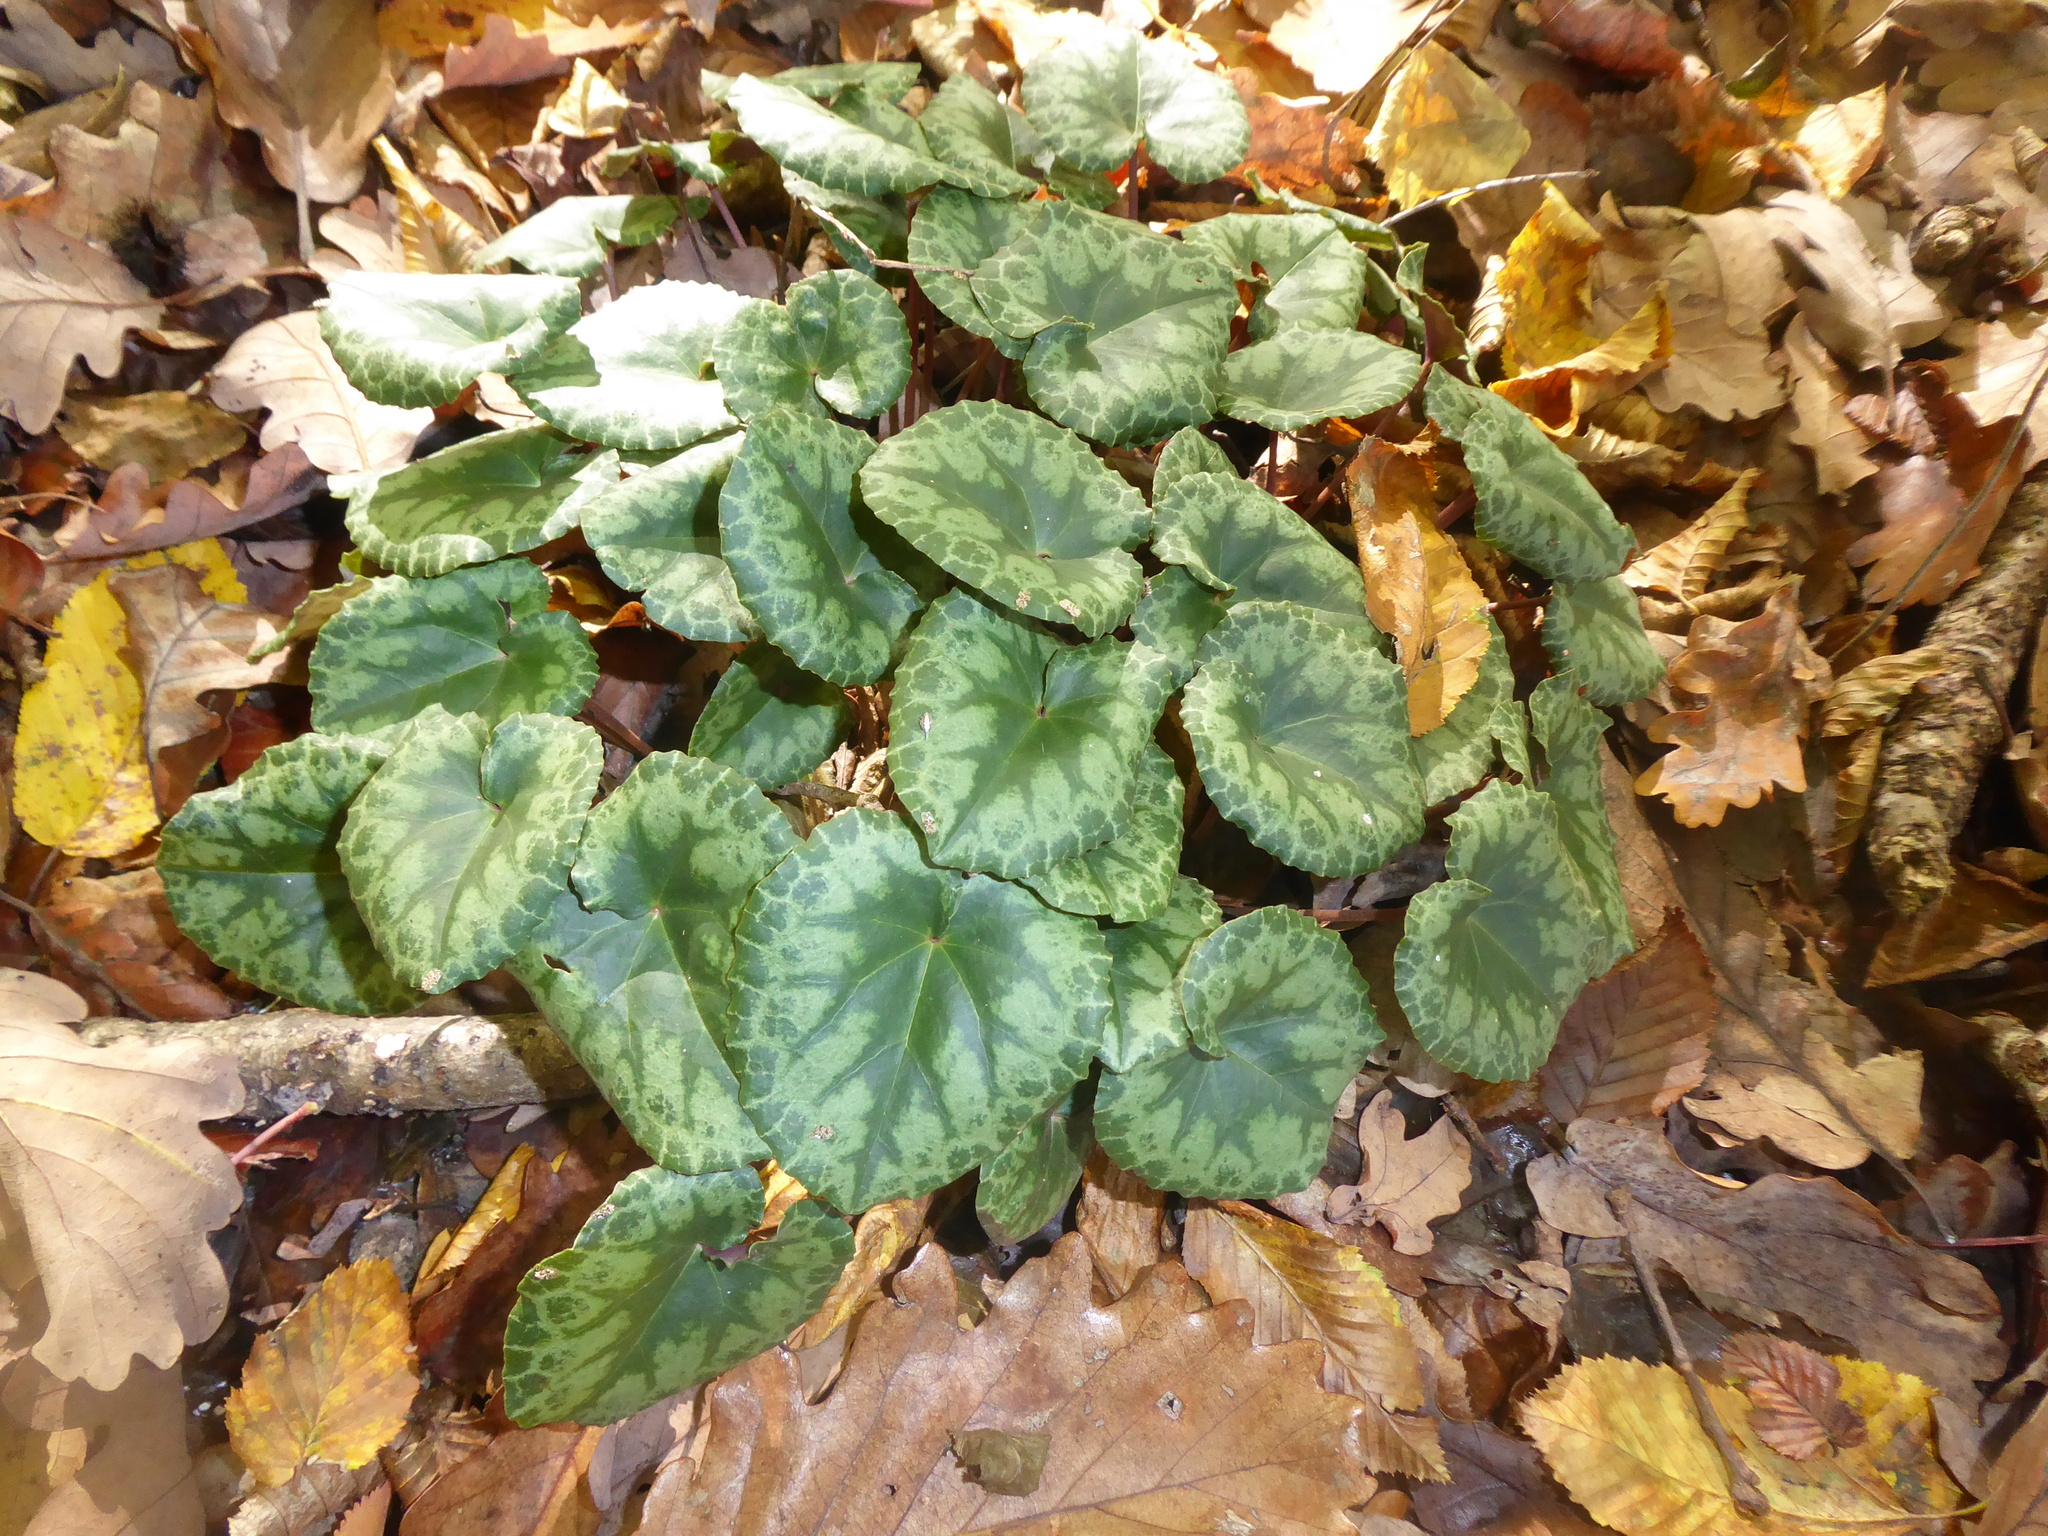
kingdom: Plantae
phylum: Tracheophyta
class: Magnoliopsida
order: Ericales
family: Primulaceae
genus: Cyclamen
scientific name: Cyclamen purpurascens
